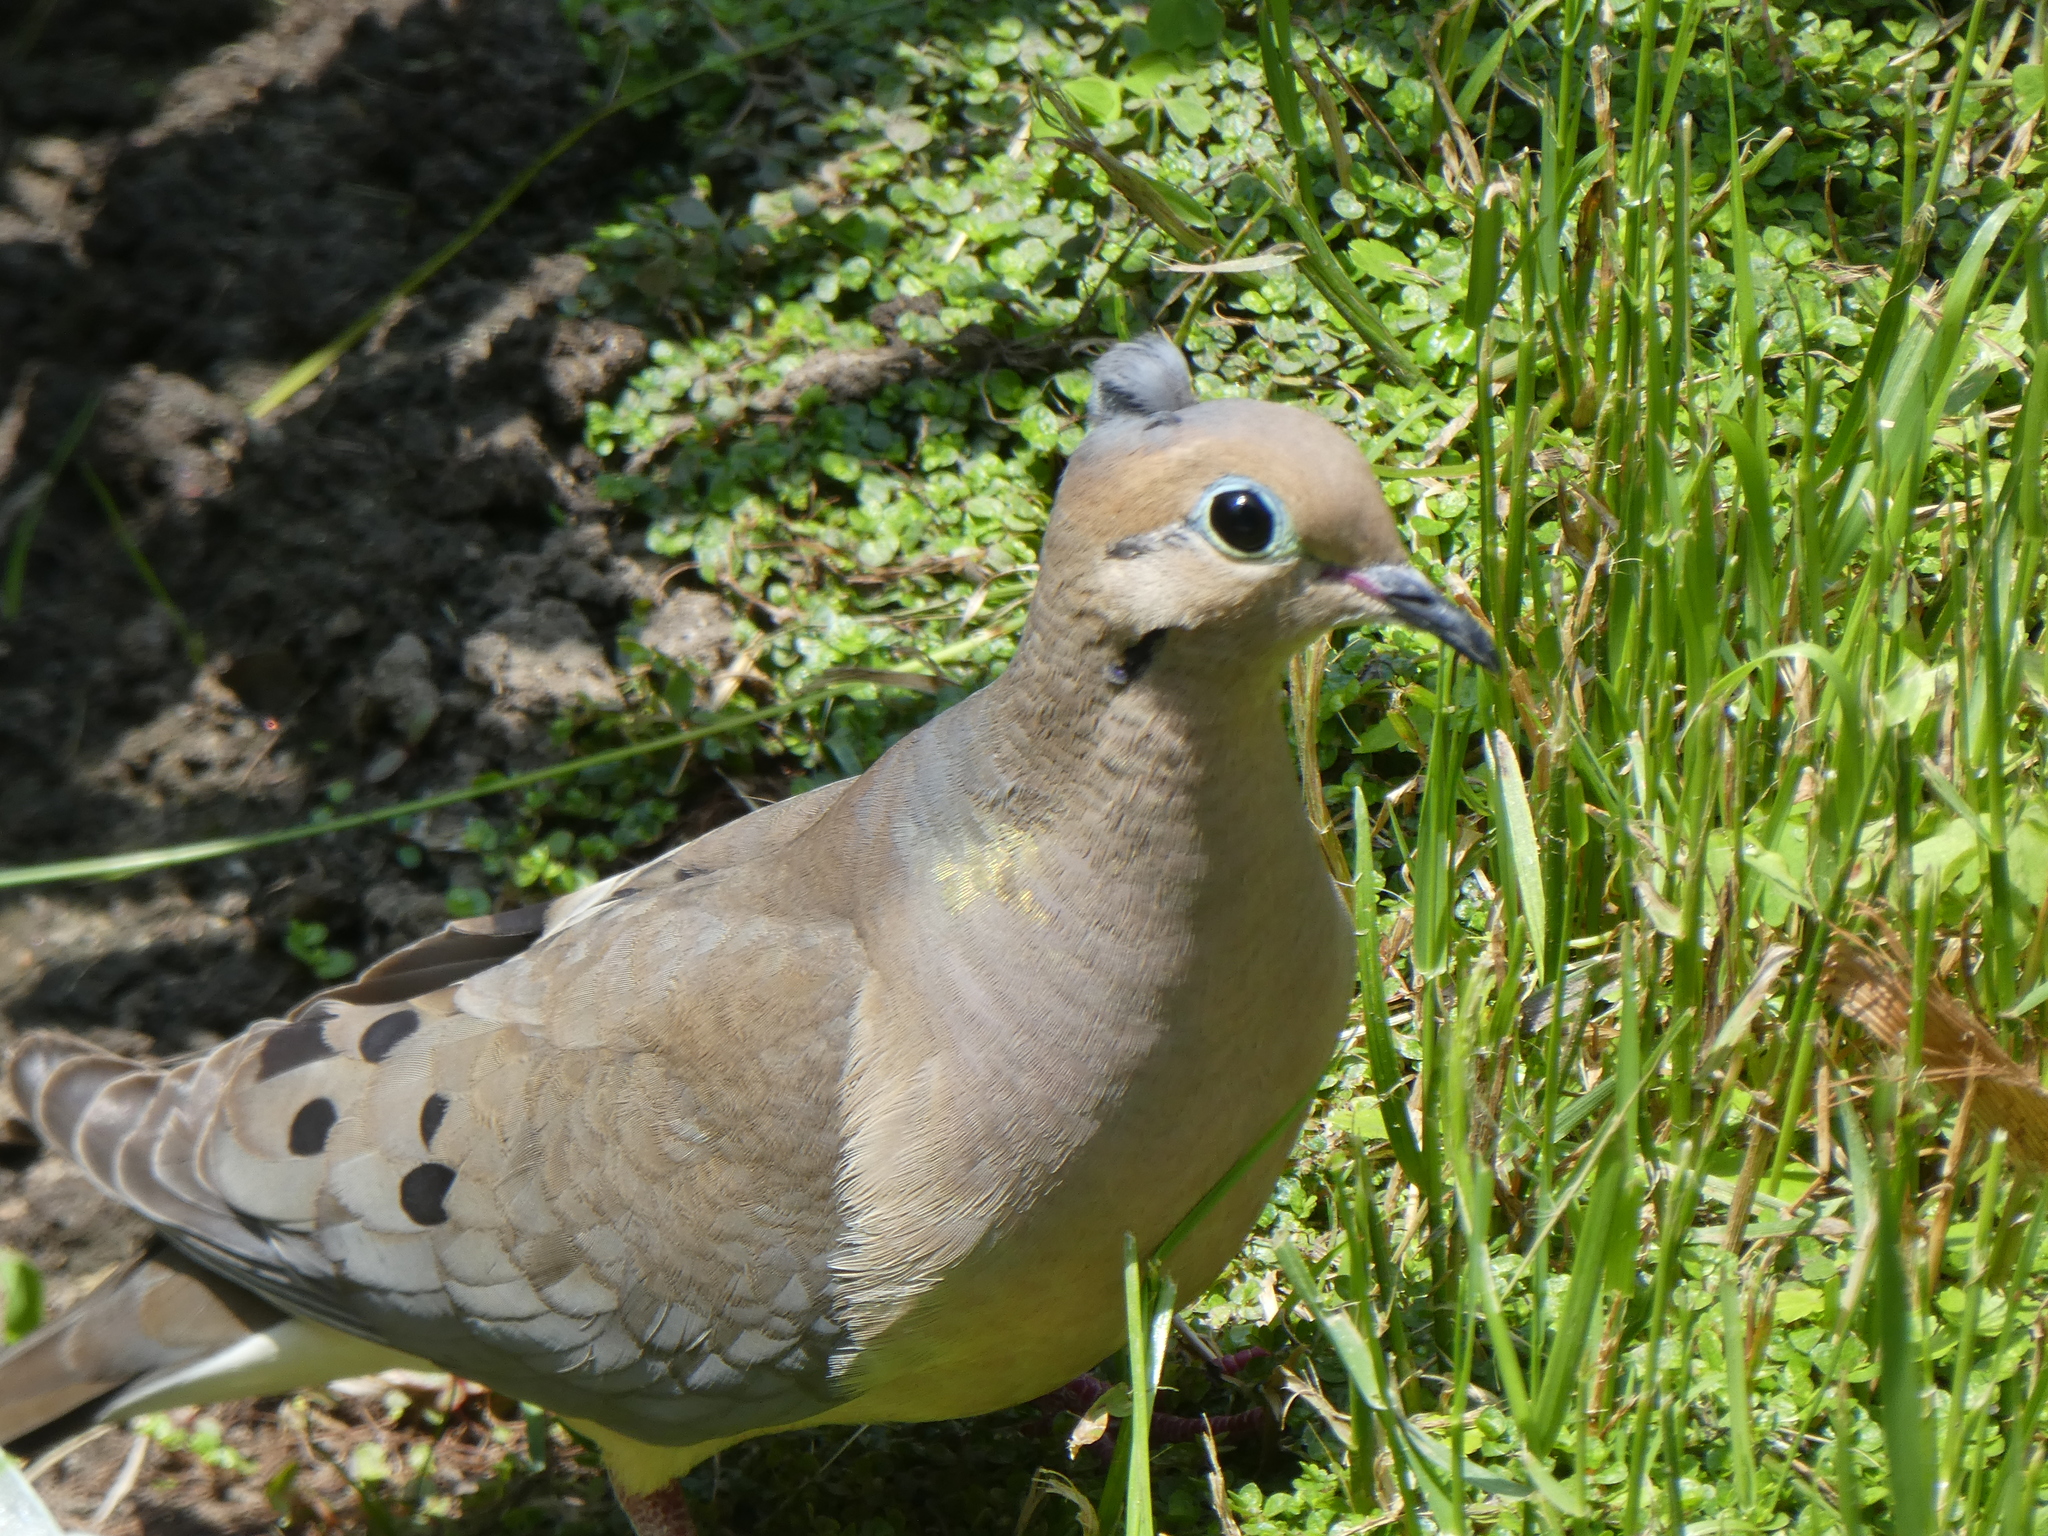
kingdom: Animalia
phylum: Chordata
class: Aves
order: Columbiformes
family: Columbidae
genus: Zenaida
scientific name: Zenaida macroura
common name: Mourning dove
